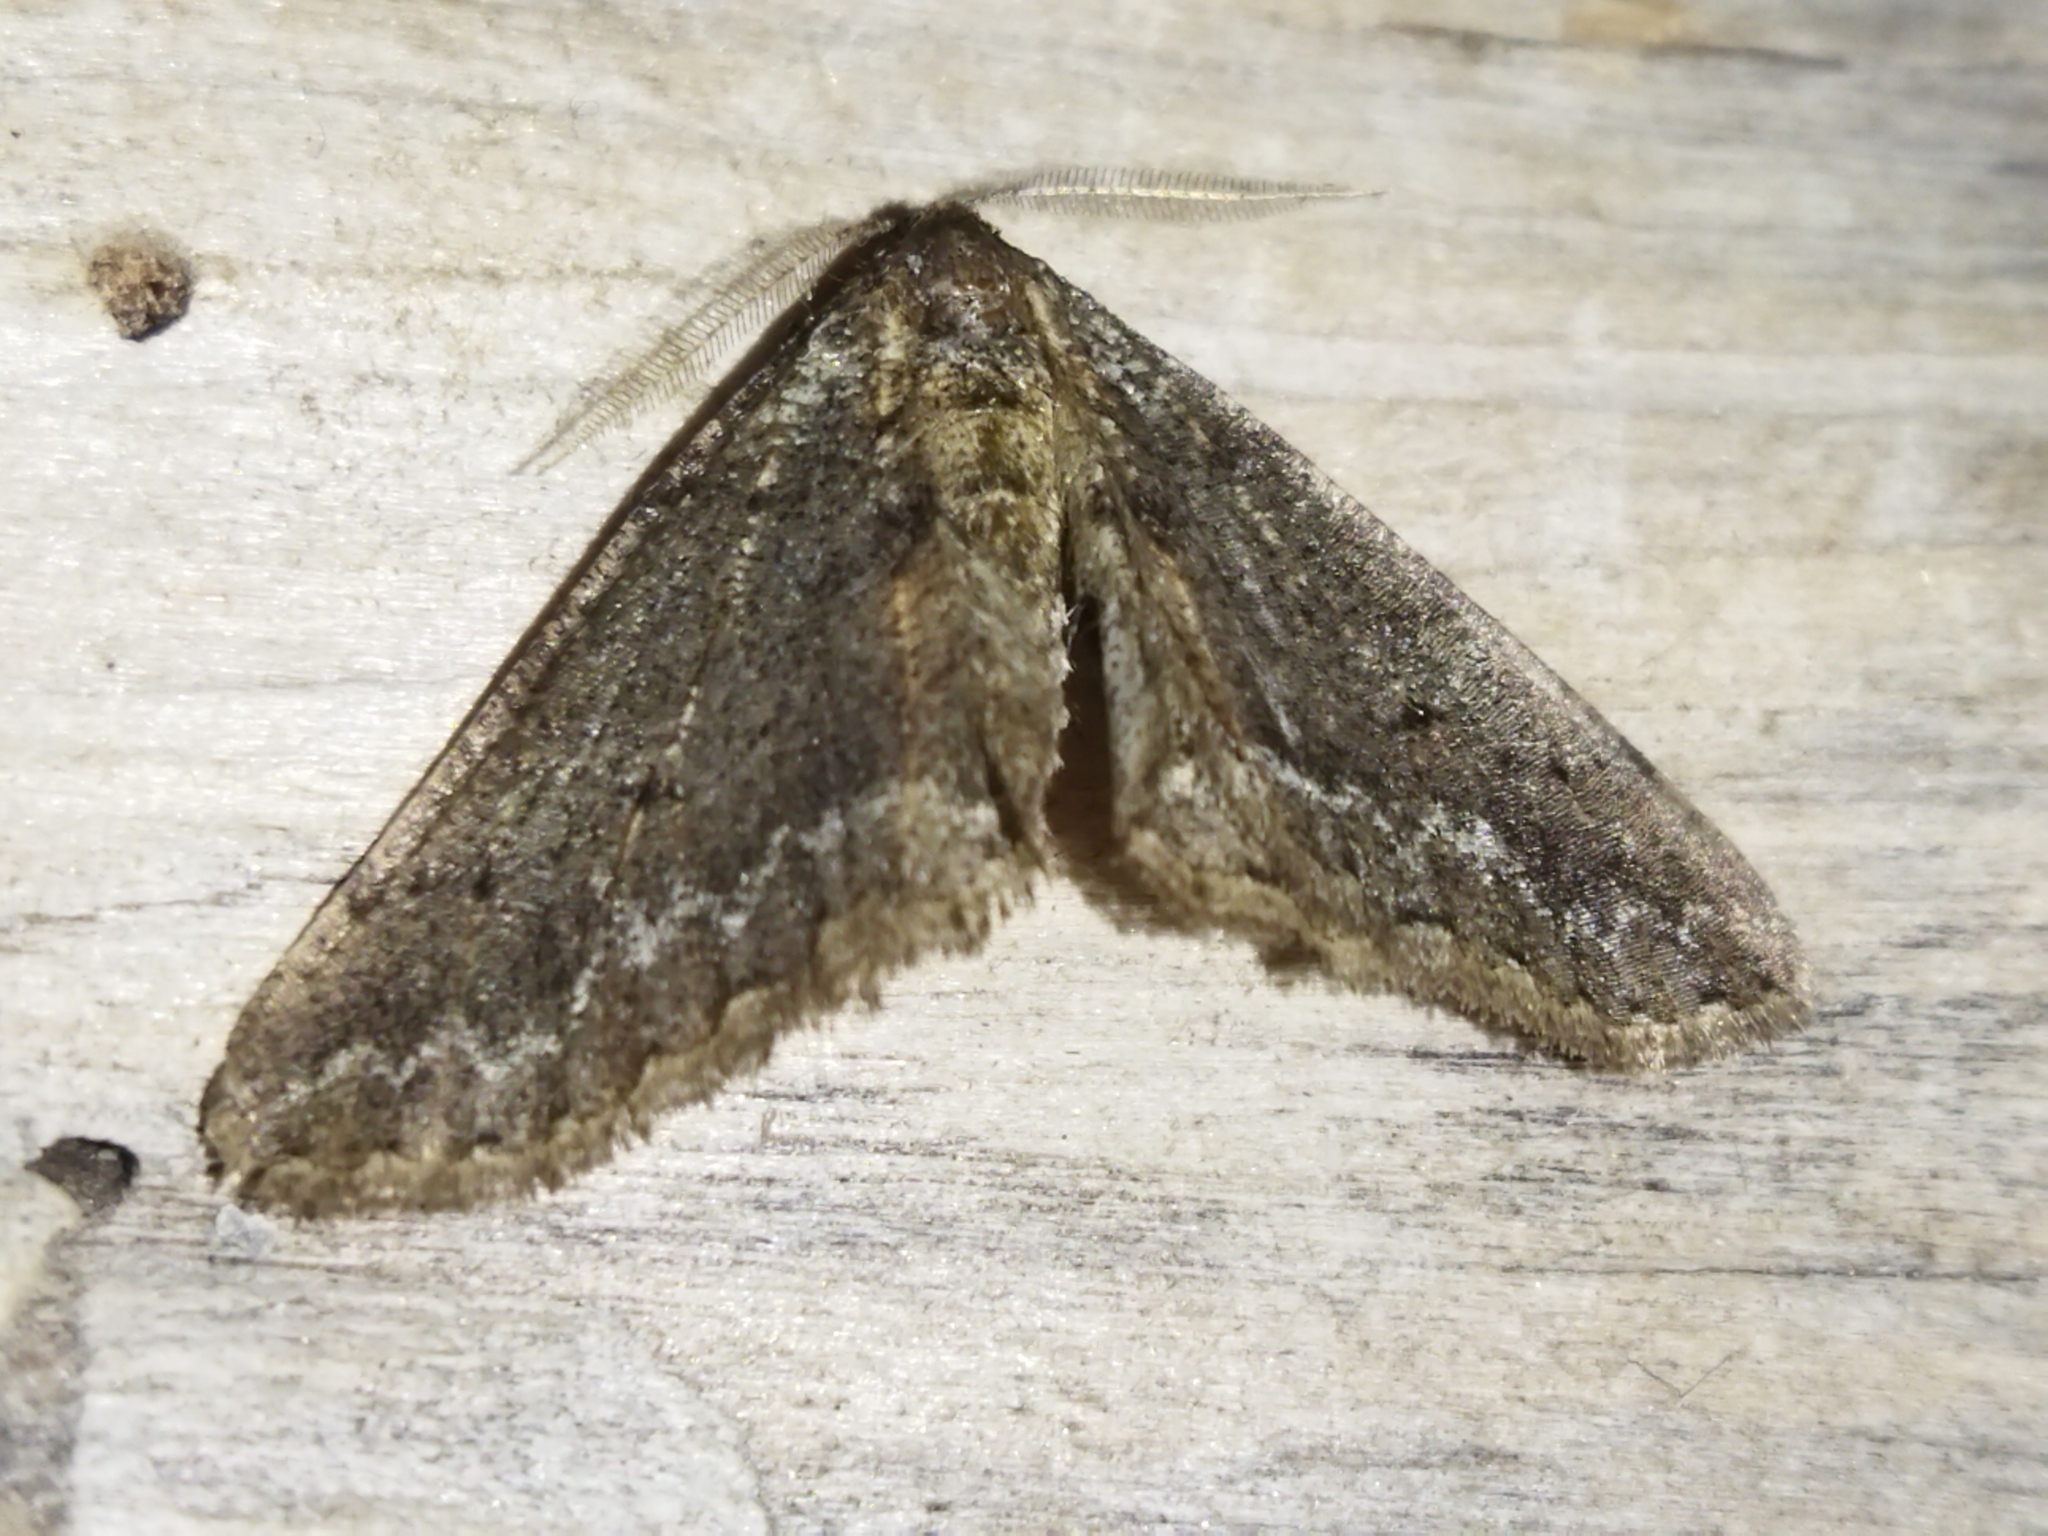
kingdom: Animalia
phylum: Arthropoda
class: Insecta
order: Lepidoptera
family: Geometridae
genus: Agriopis
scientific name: Agriopis bajaria
